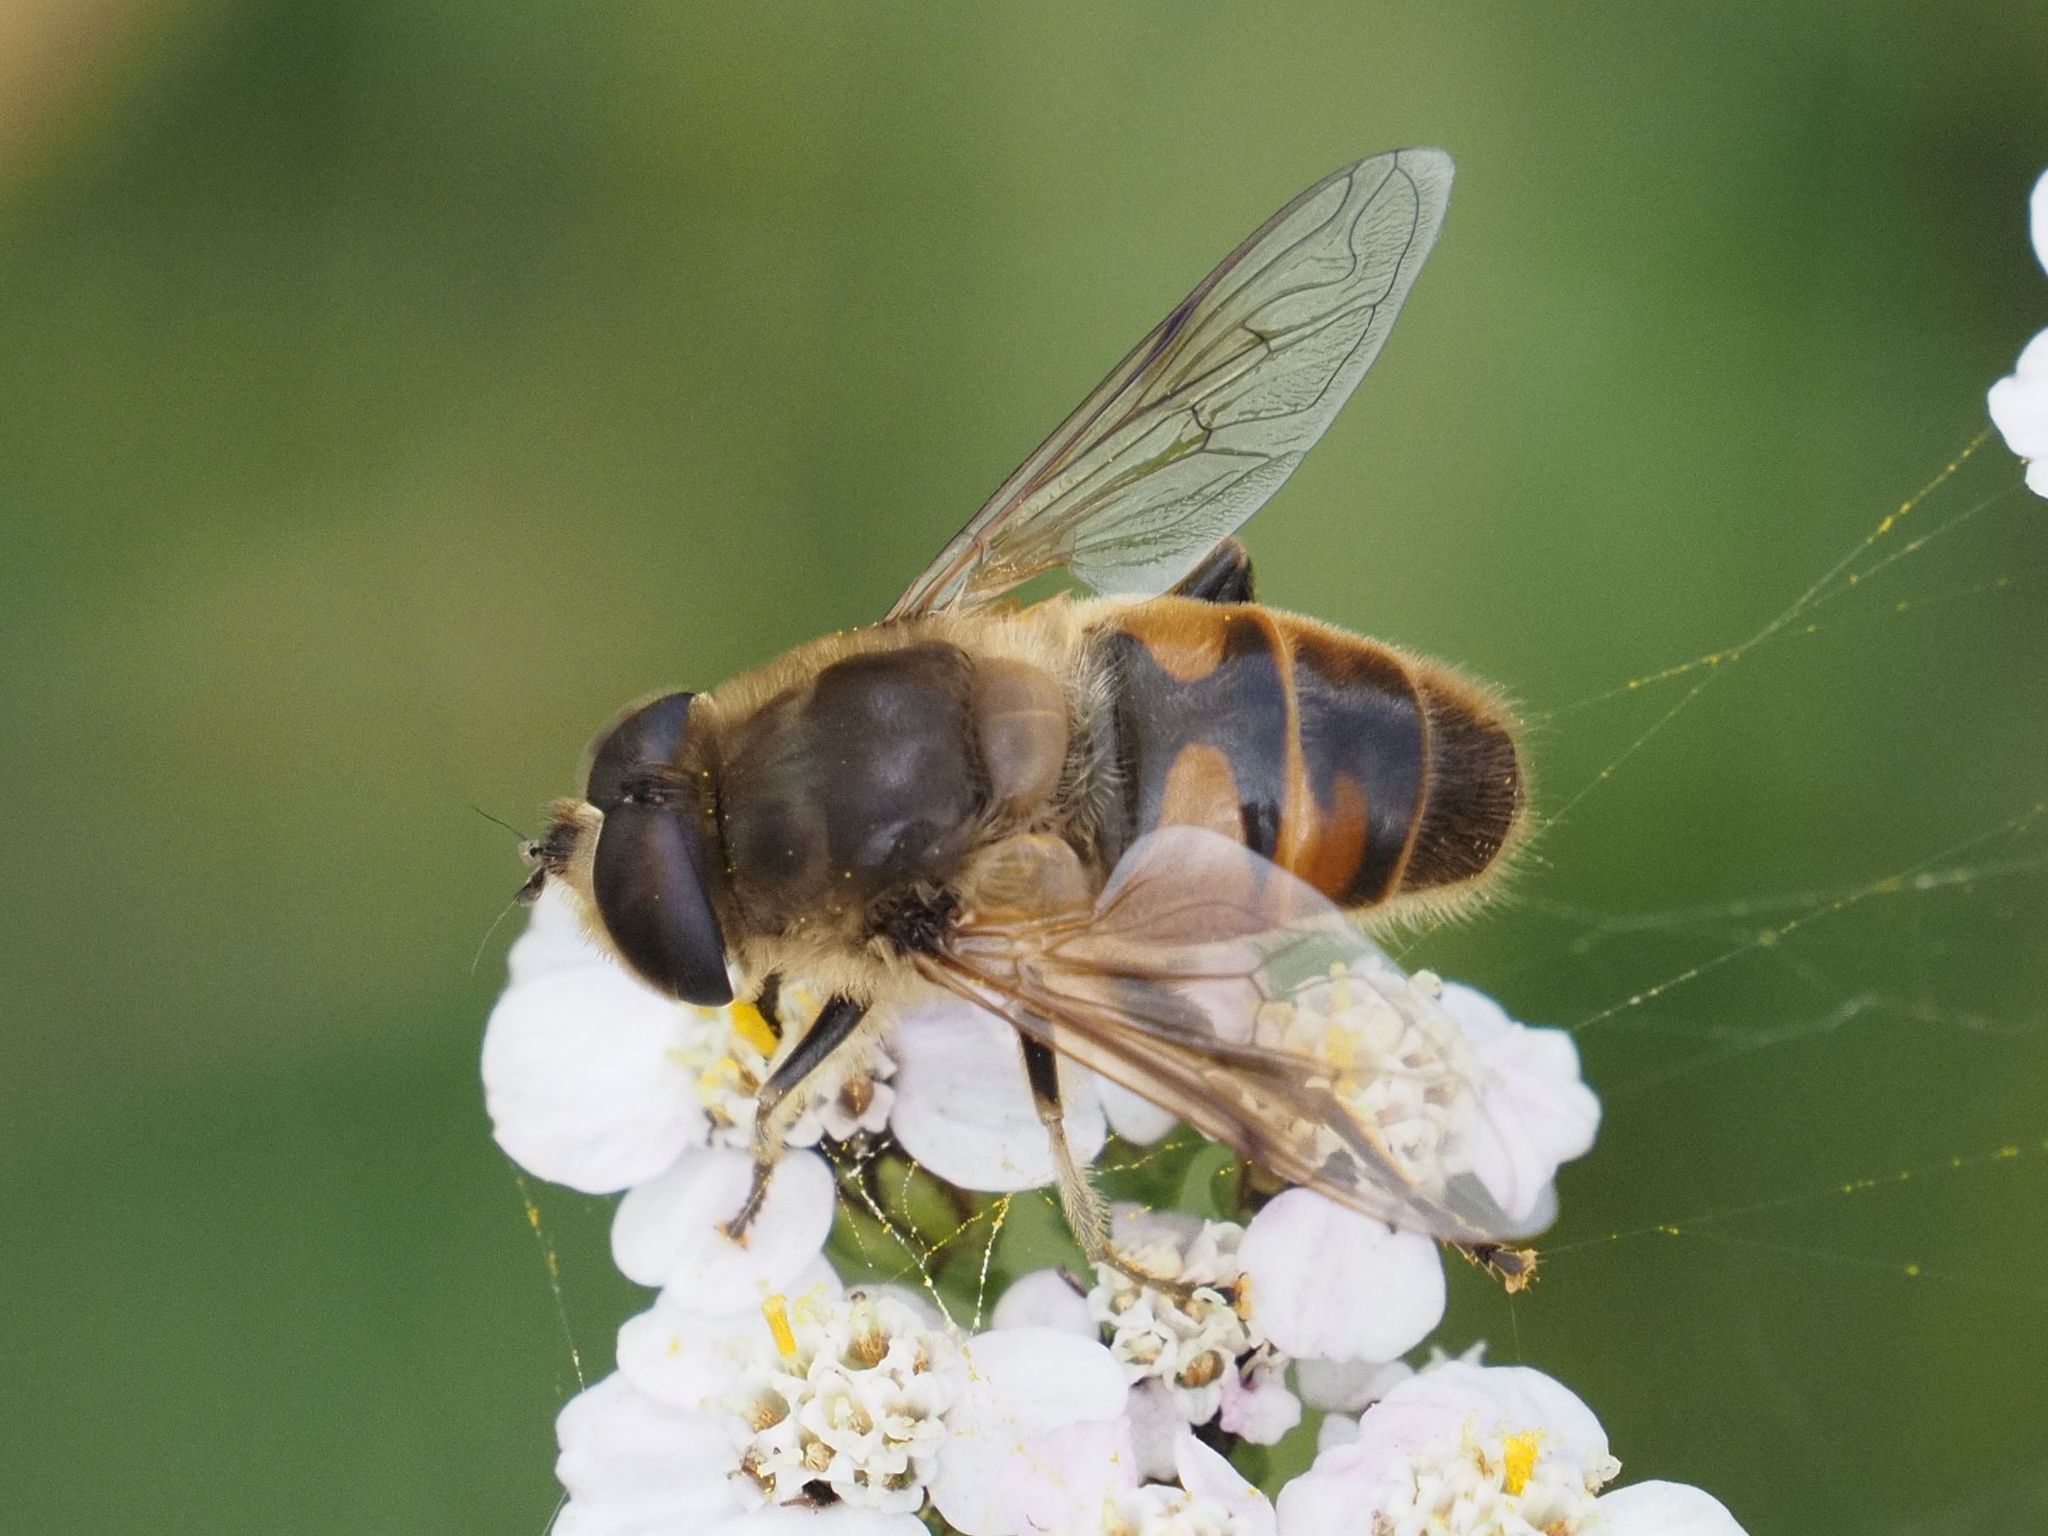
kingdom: Animalia
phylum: Arthropoda
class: Insecta
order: Diptera
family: Syrphidae
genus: Eristalis
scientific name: Eristalis tenax
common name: Drone fly
